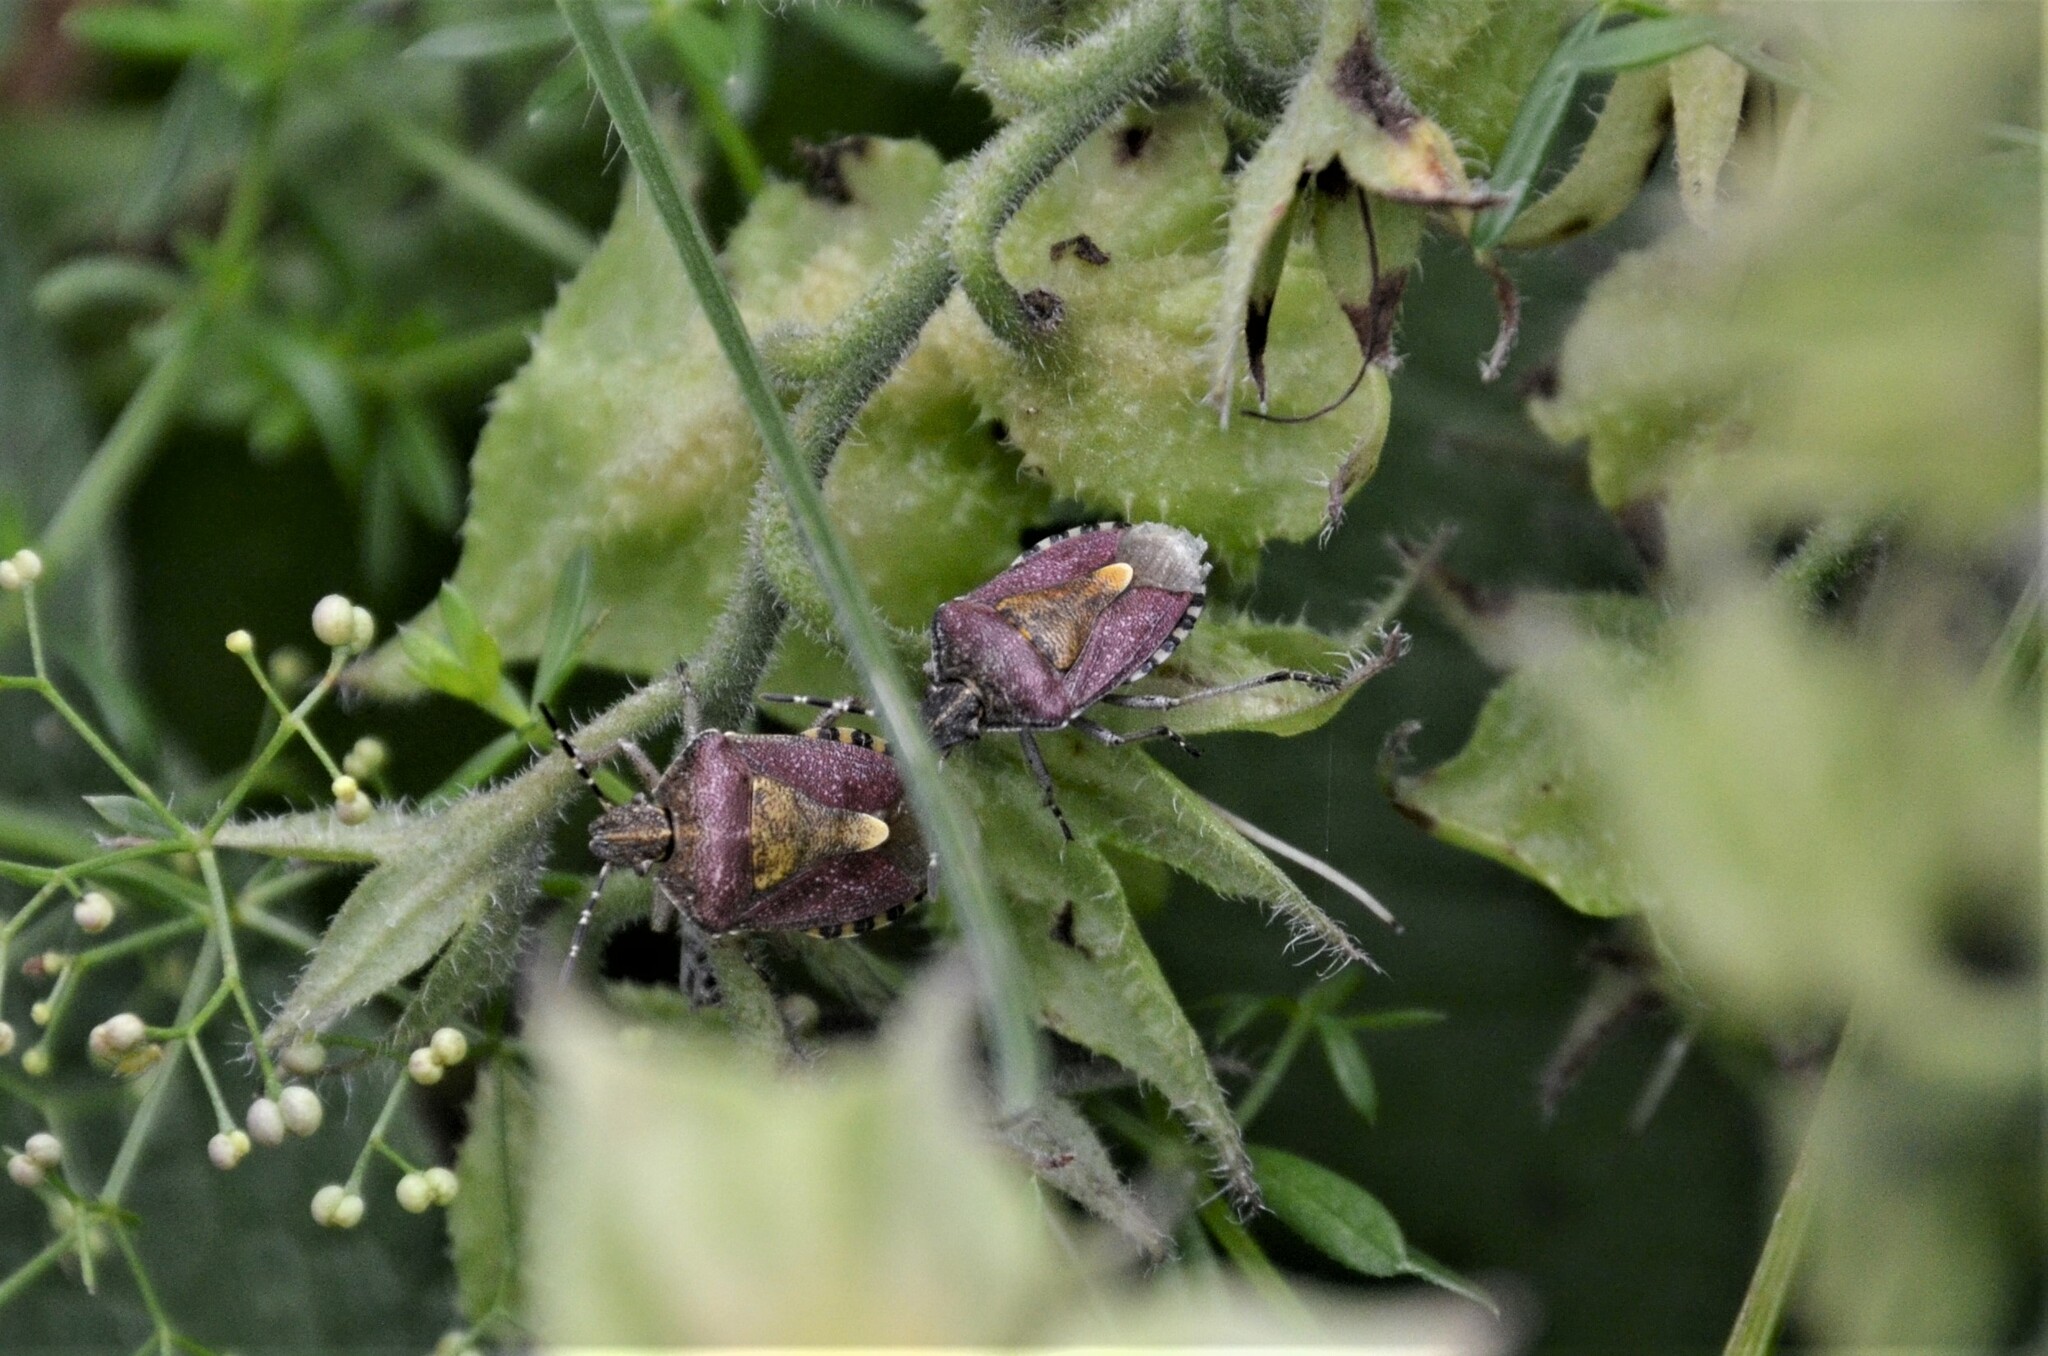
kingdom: Animalia
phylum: Arthropoda
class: Insecta
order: Hemiptera
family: Pentatomidae
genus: Dolycoris
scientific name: Dolycoris baccarum
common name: Sloe bug
